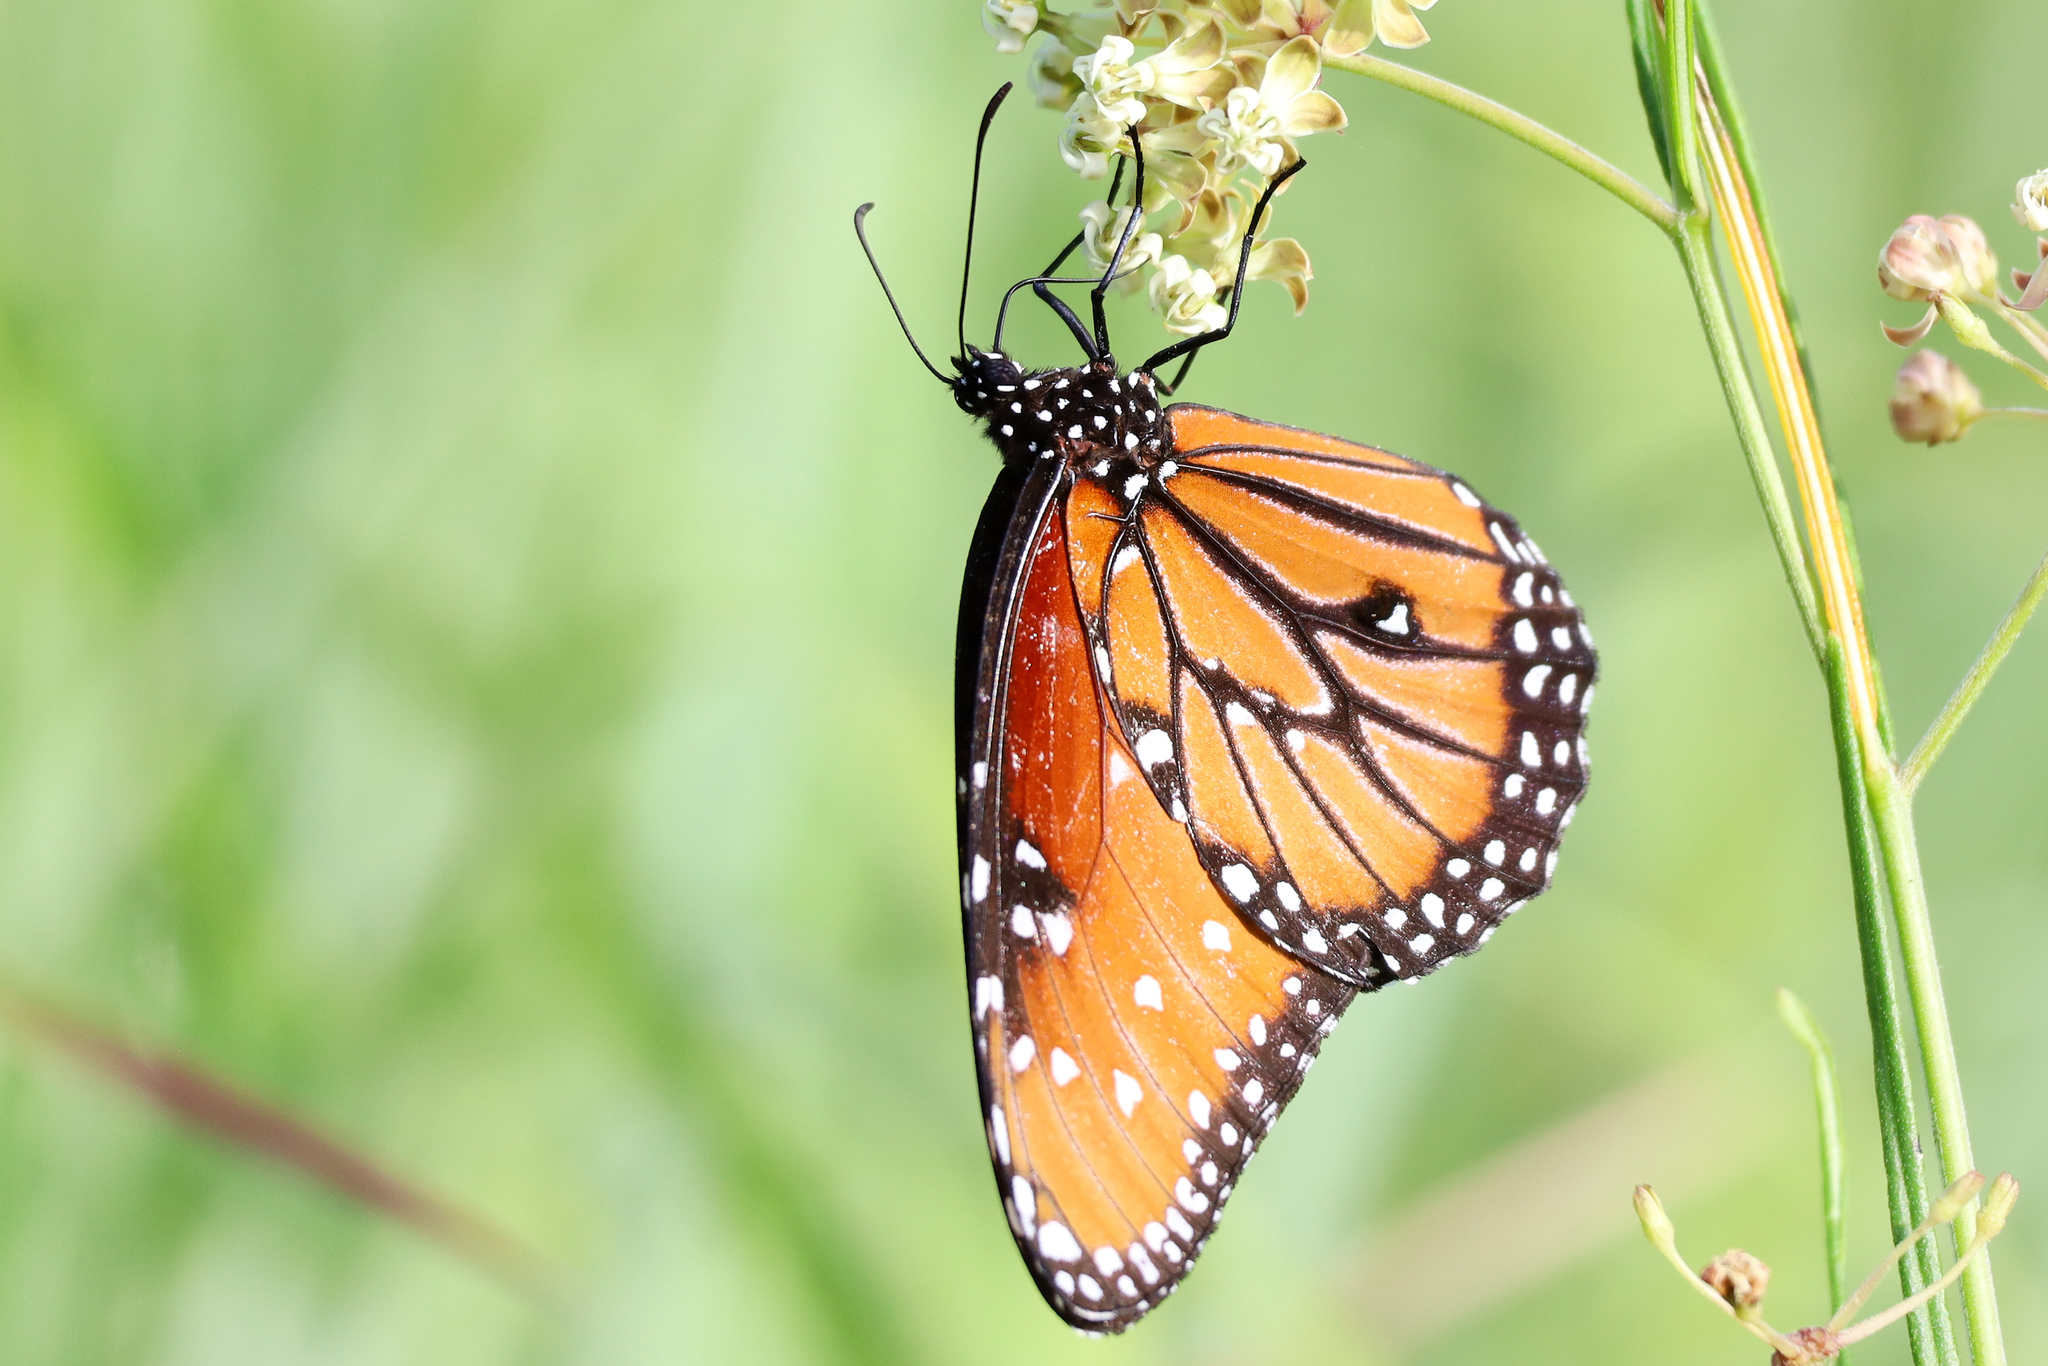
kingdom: Animalia
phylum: Arthropoda
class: Insecta
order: Lepidoptera
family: Nymphalidae
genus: Danaus
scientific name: Danaus gilippus
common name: Queen
